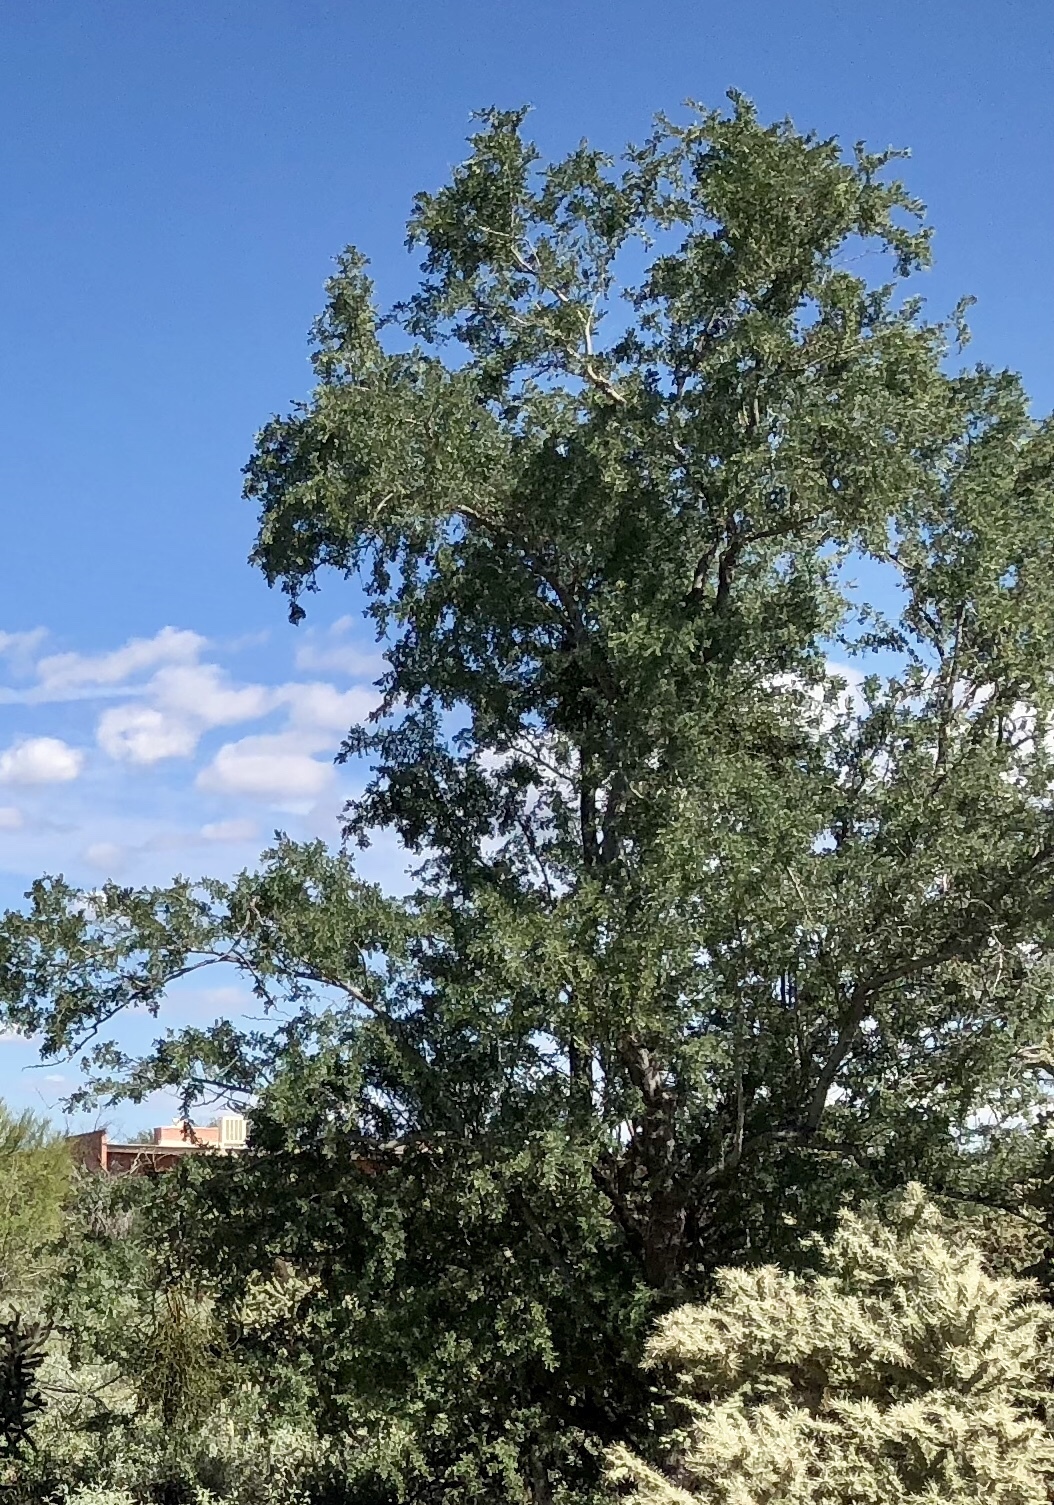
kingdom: Plantae
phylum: Tracheophyta
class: Magnoliopsida
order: Fabales
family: Fabaceae
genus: Olneya
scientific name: Olneya tesota
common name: Desert ironwood
